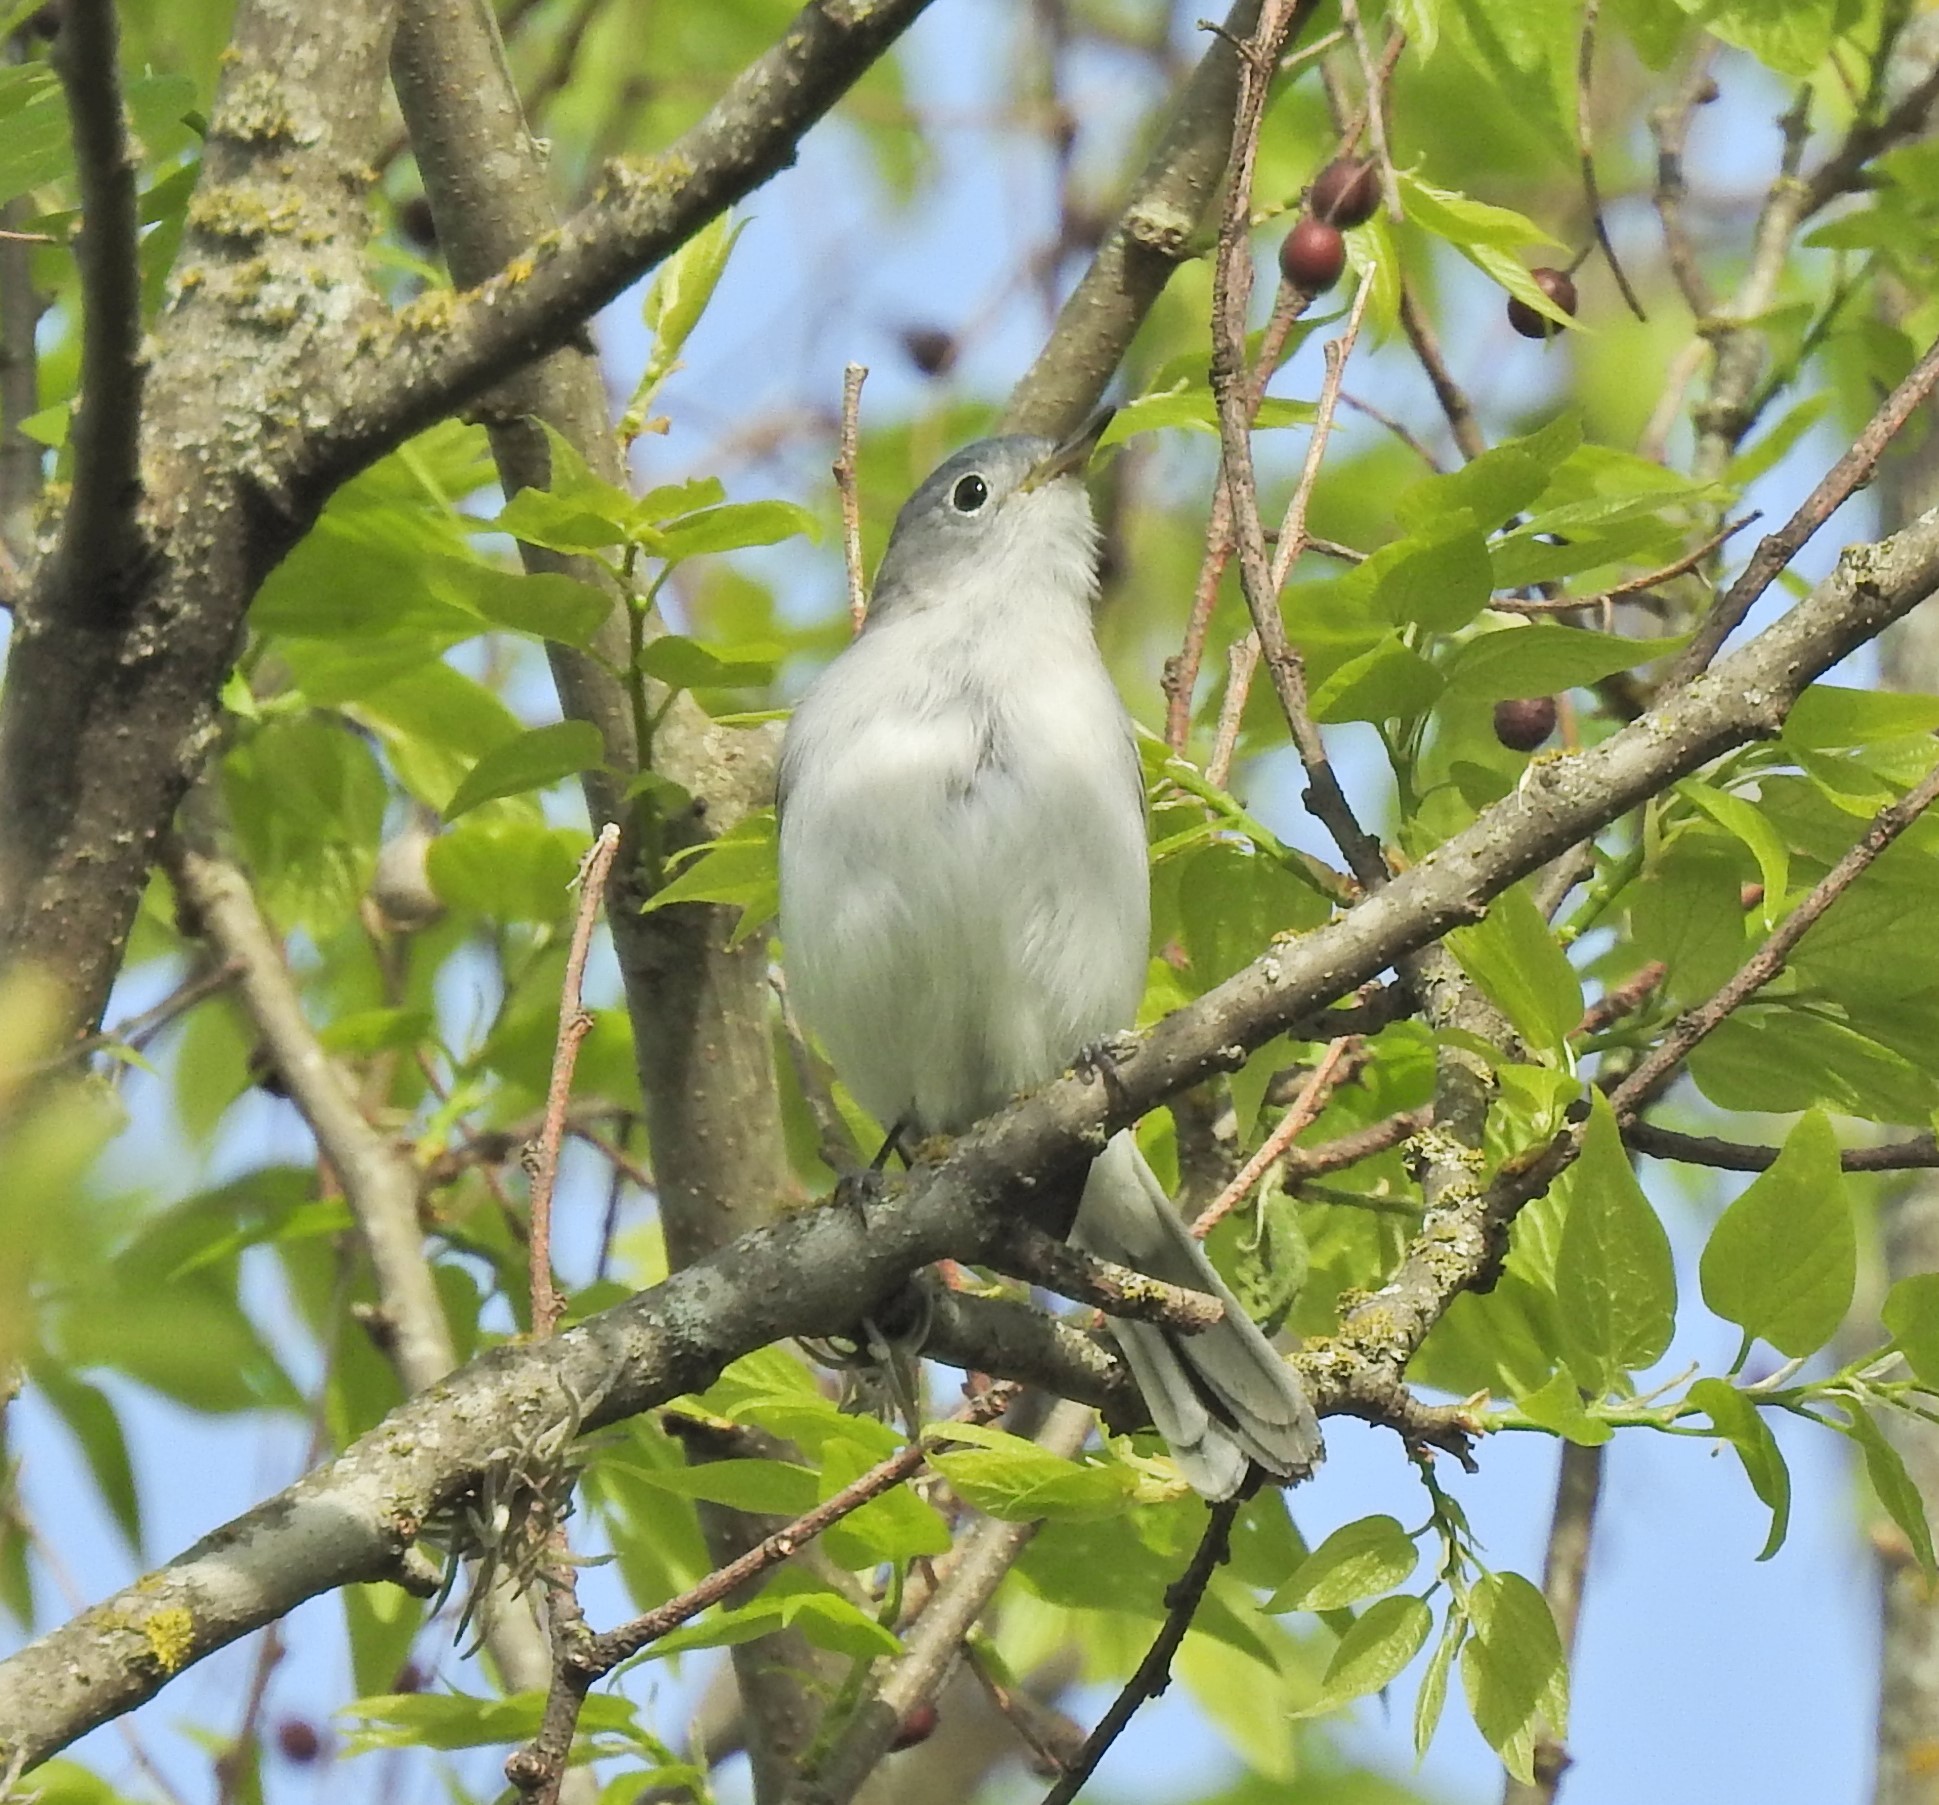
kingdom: Animalia
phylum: Chordata
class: Aves
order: Passeriformes
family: Polioptilidae
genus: Polioptila
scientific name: Polioptila caerulea
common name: Blue-gray gnatcatcher
